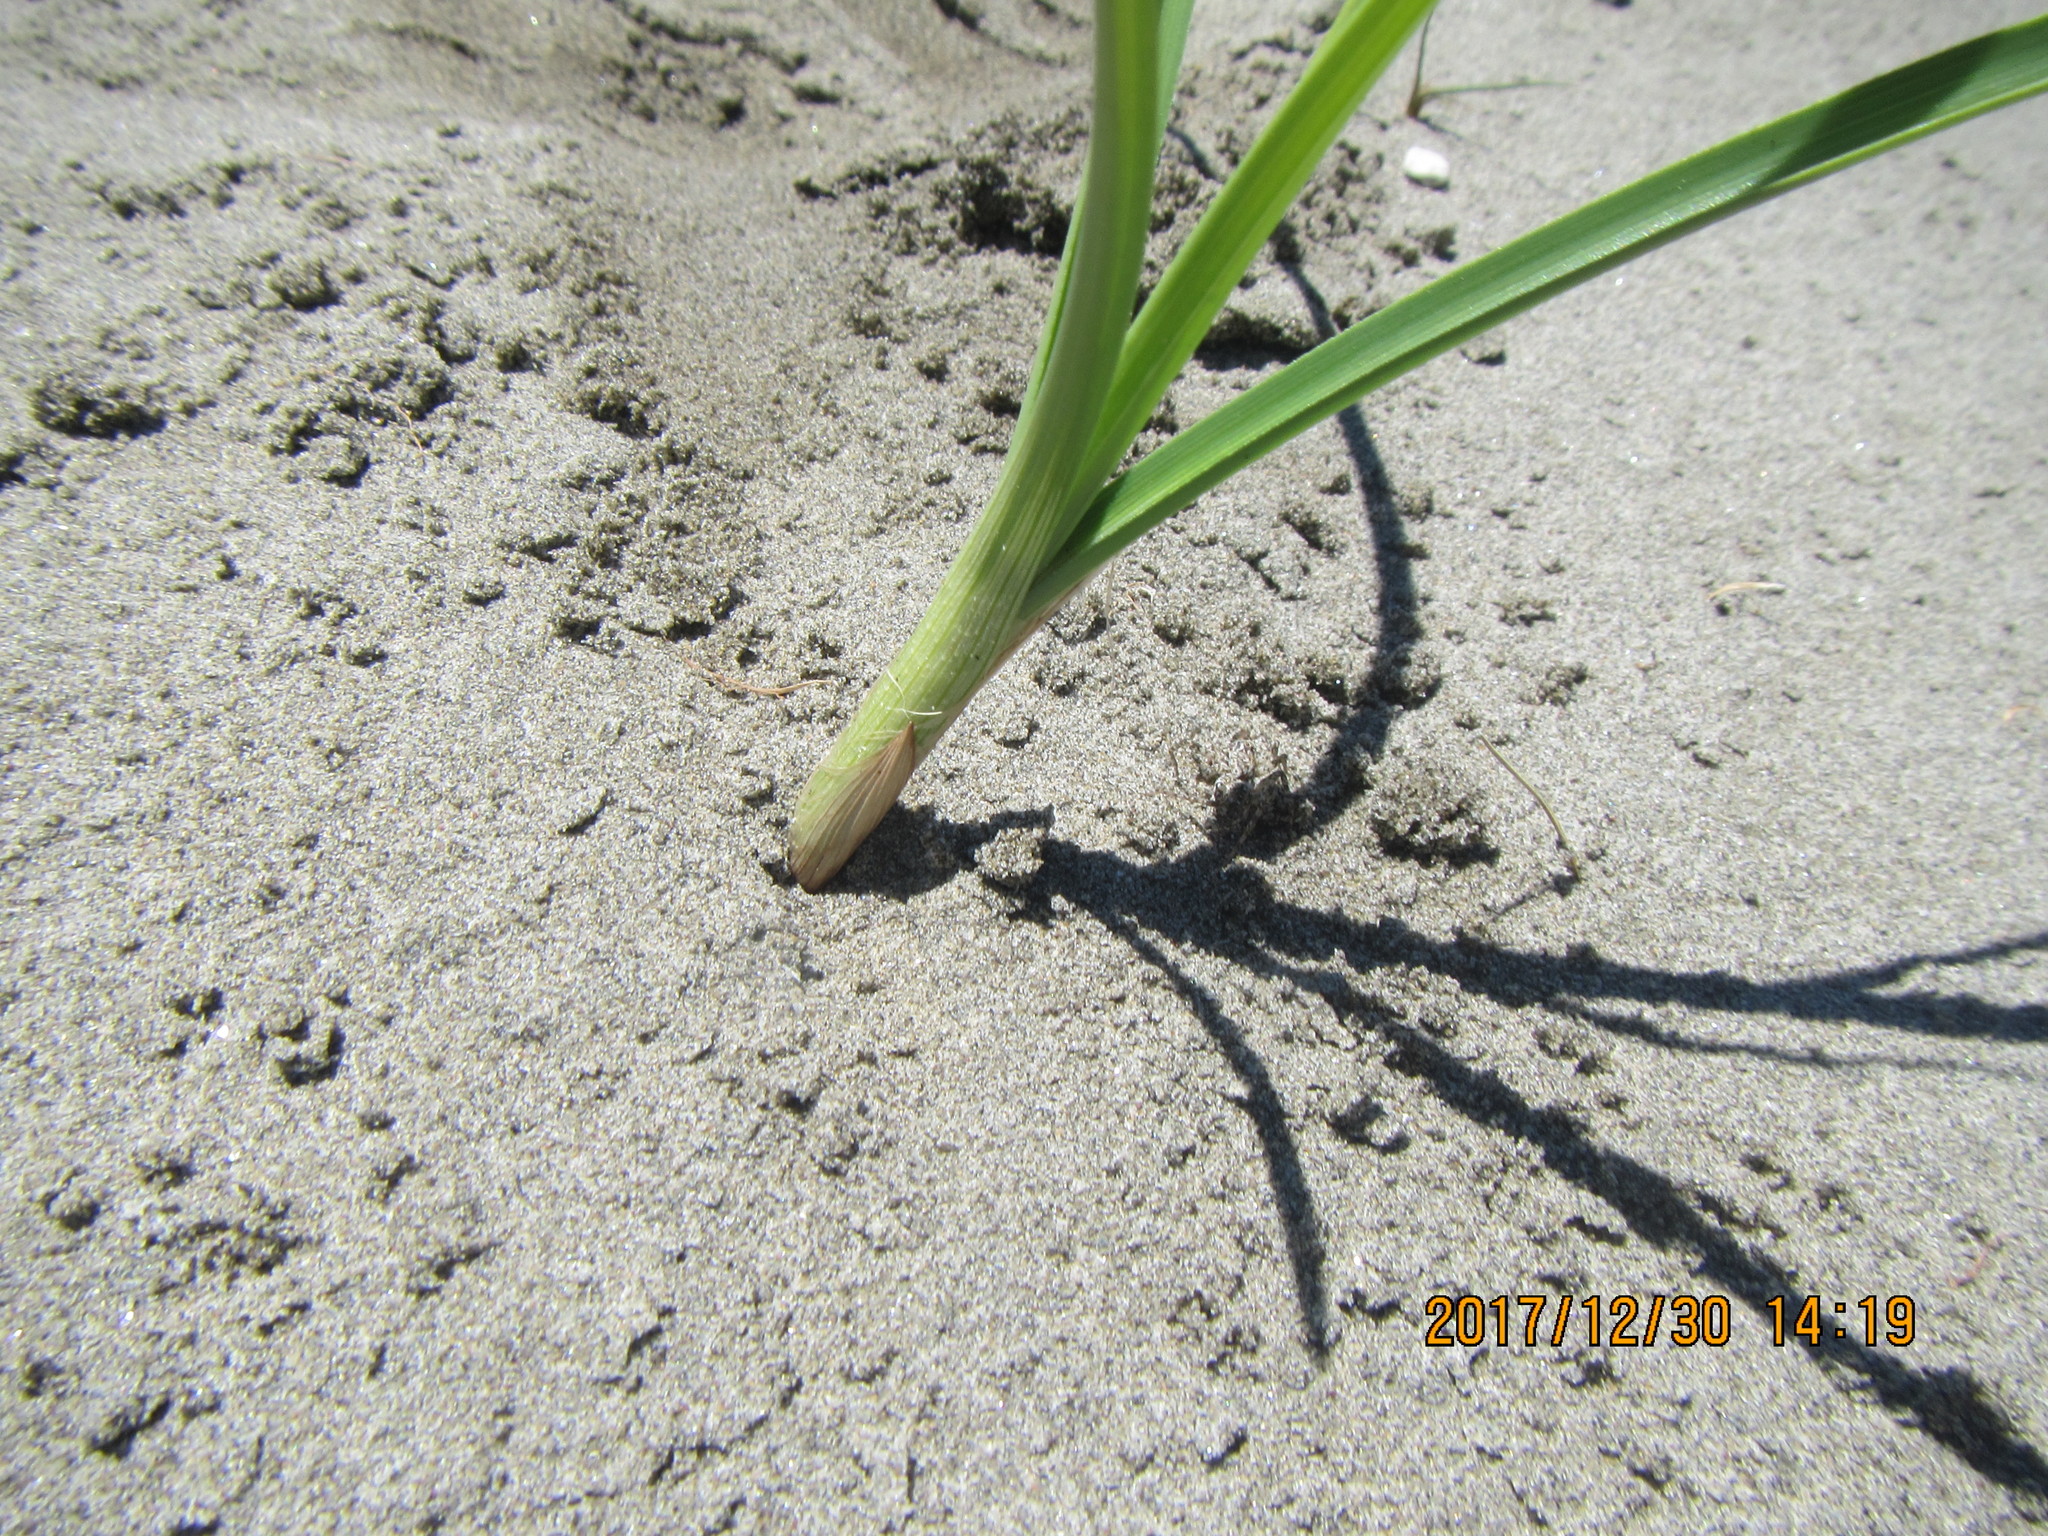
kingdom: Animalia
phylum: Arthropoda
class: Arachnida
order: Araneae
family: Lycosidae
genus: Anoteropsis
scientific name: Anoteropsis litoralis
